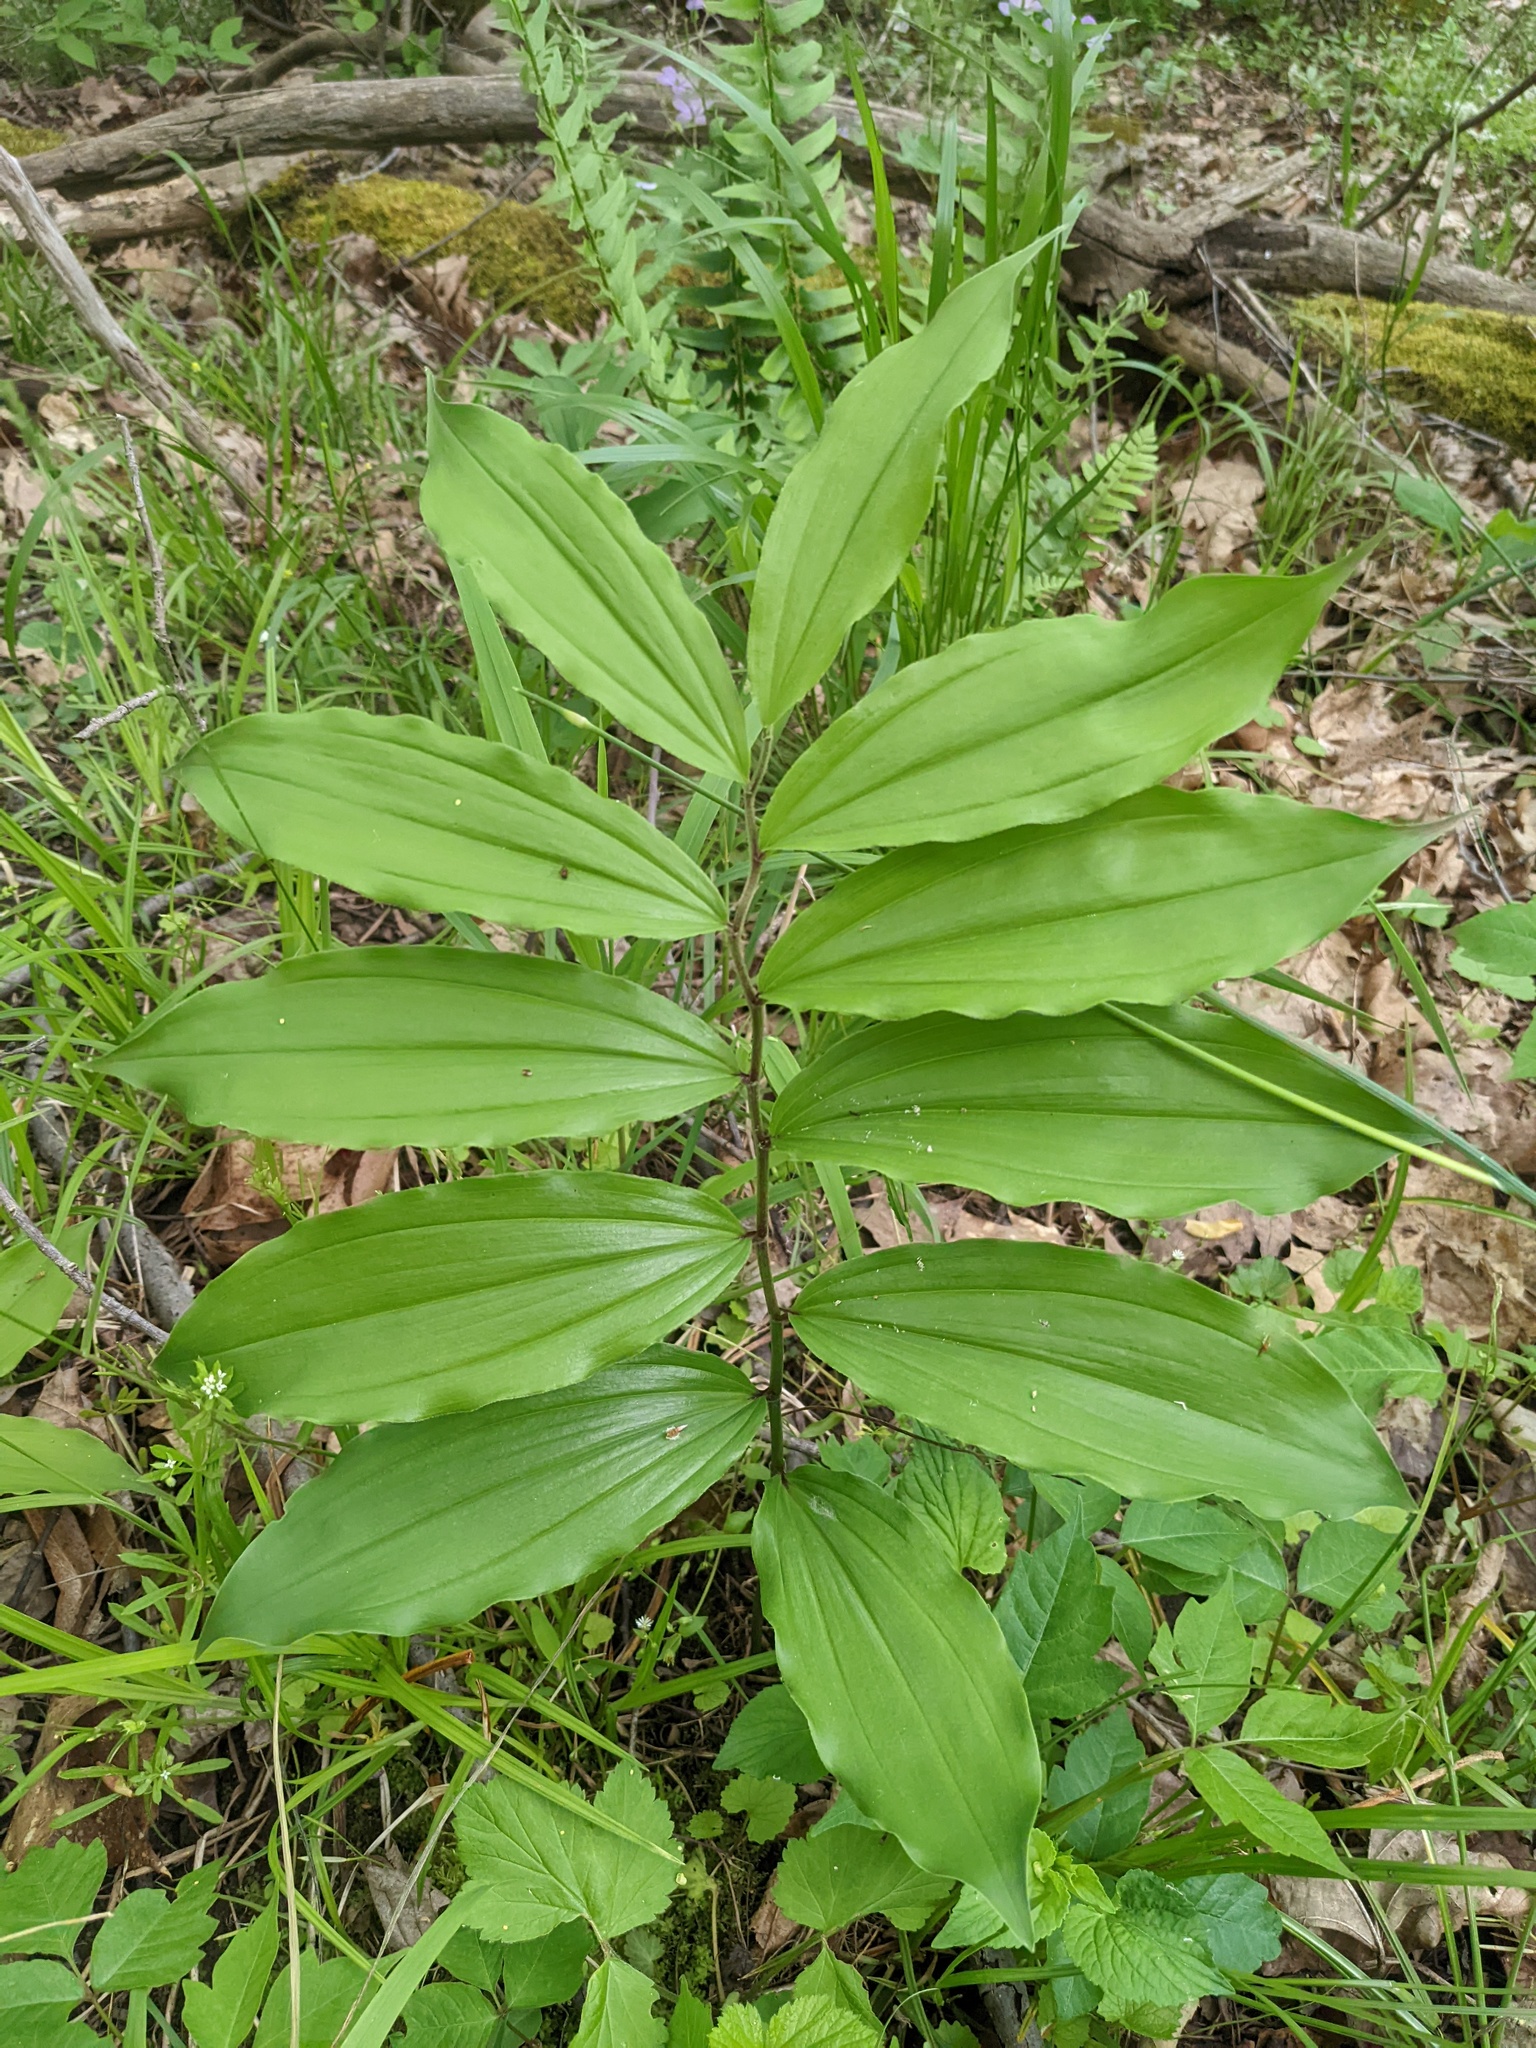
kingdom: Plantae
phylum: Tracheophyta
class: Liliopsida
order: Asparagales
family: Asparagaceae
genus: Maianthemum
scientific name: Maianthemum racemosum
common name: False spikenard
